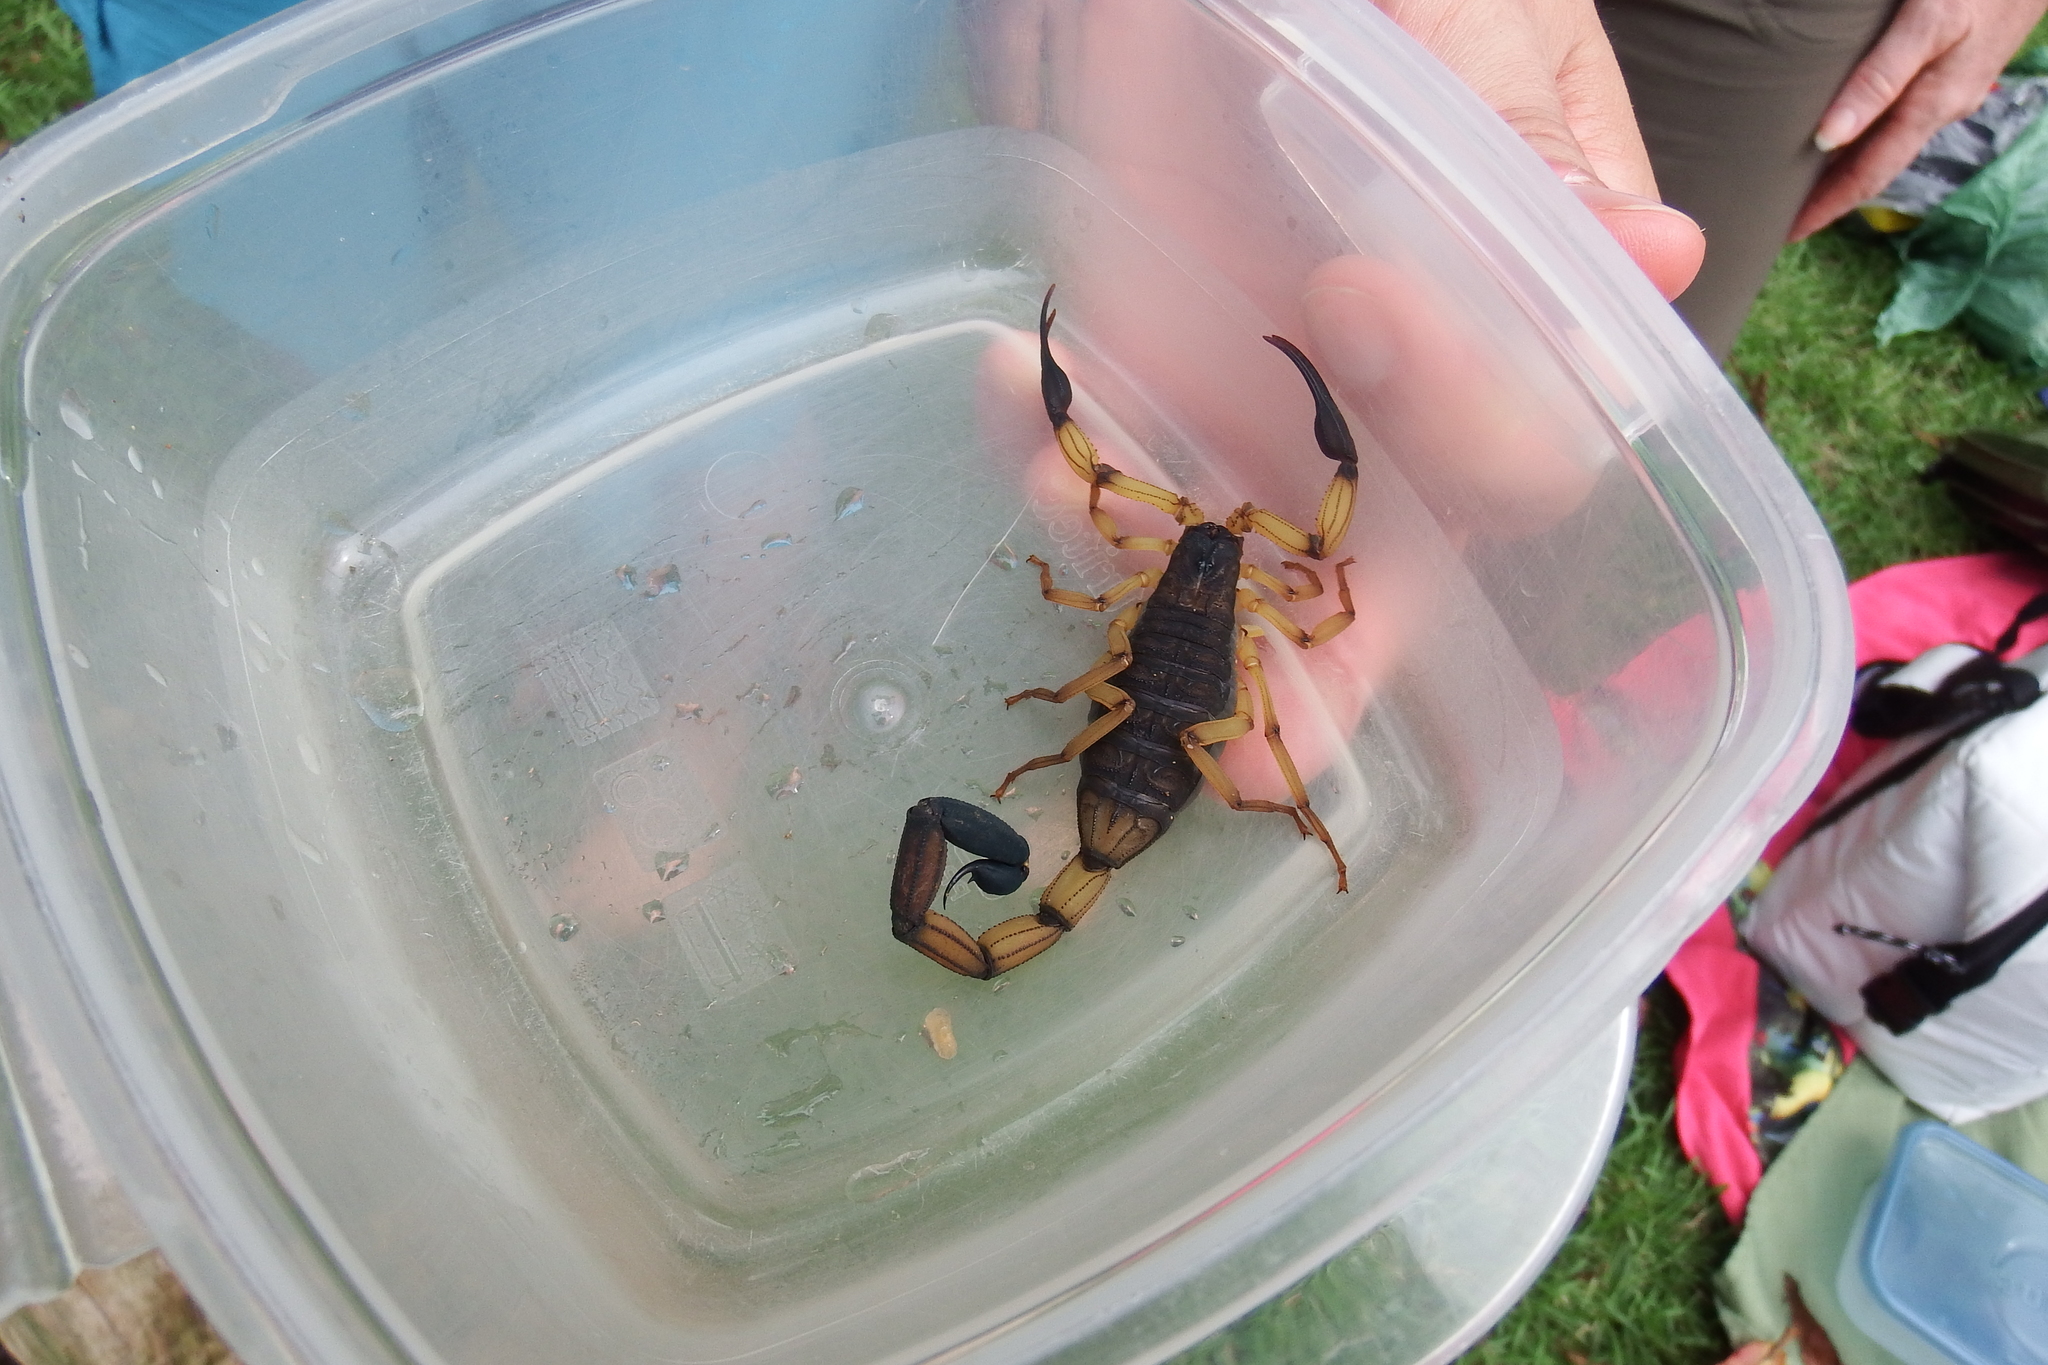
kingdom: Animalia
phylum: Arthropoda
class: Arachnida
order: Scorpiones
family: Buthidae
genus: Centruroides
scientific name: Centruroides bicolor
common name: Scorpions
